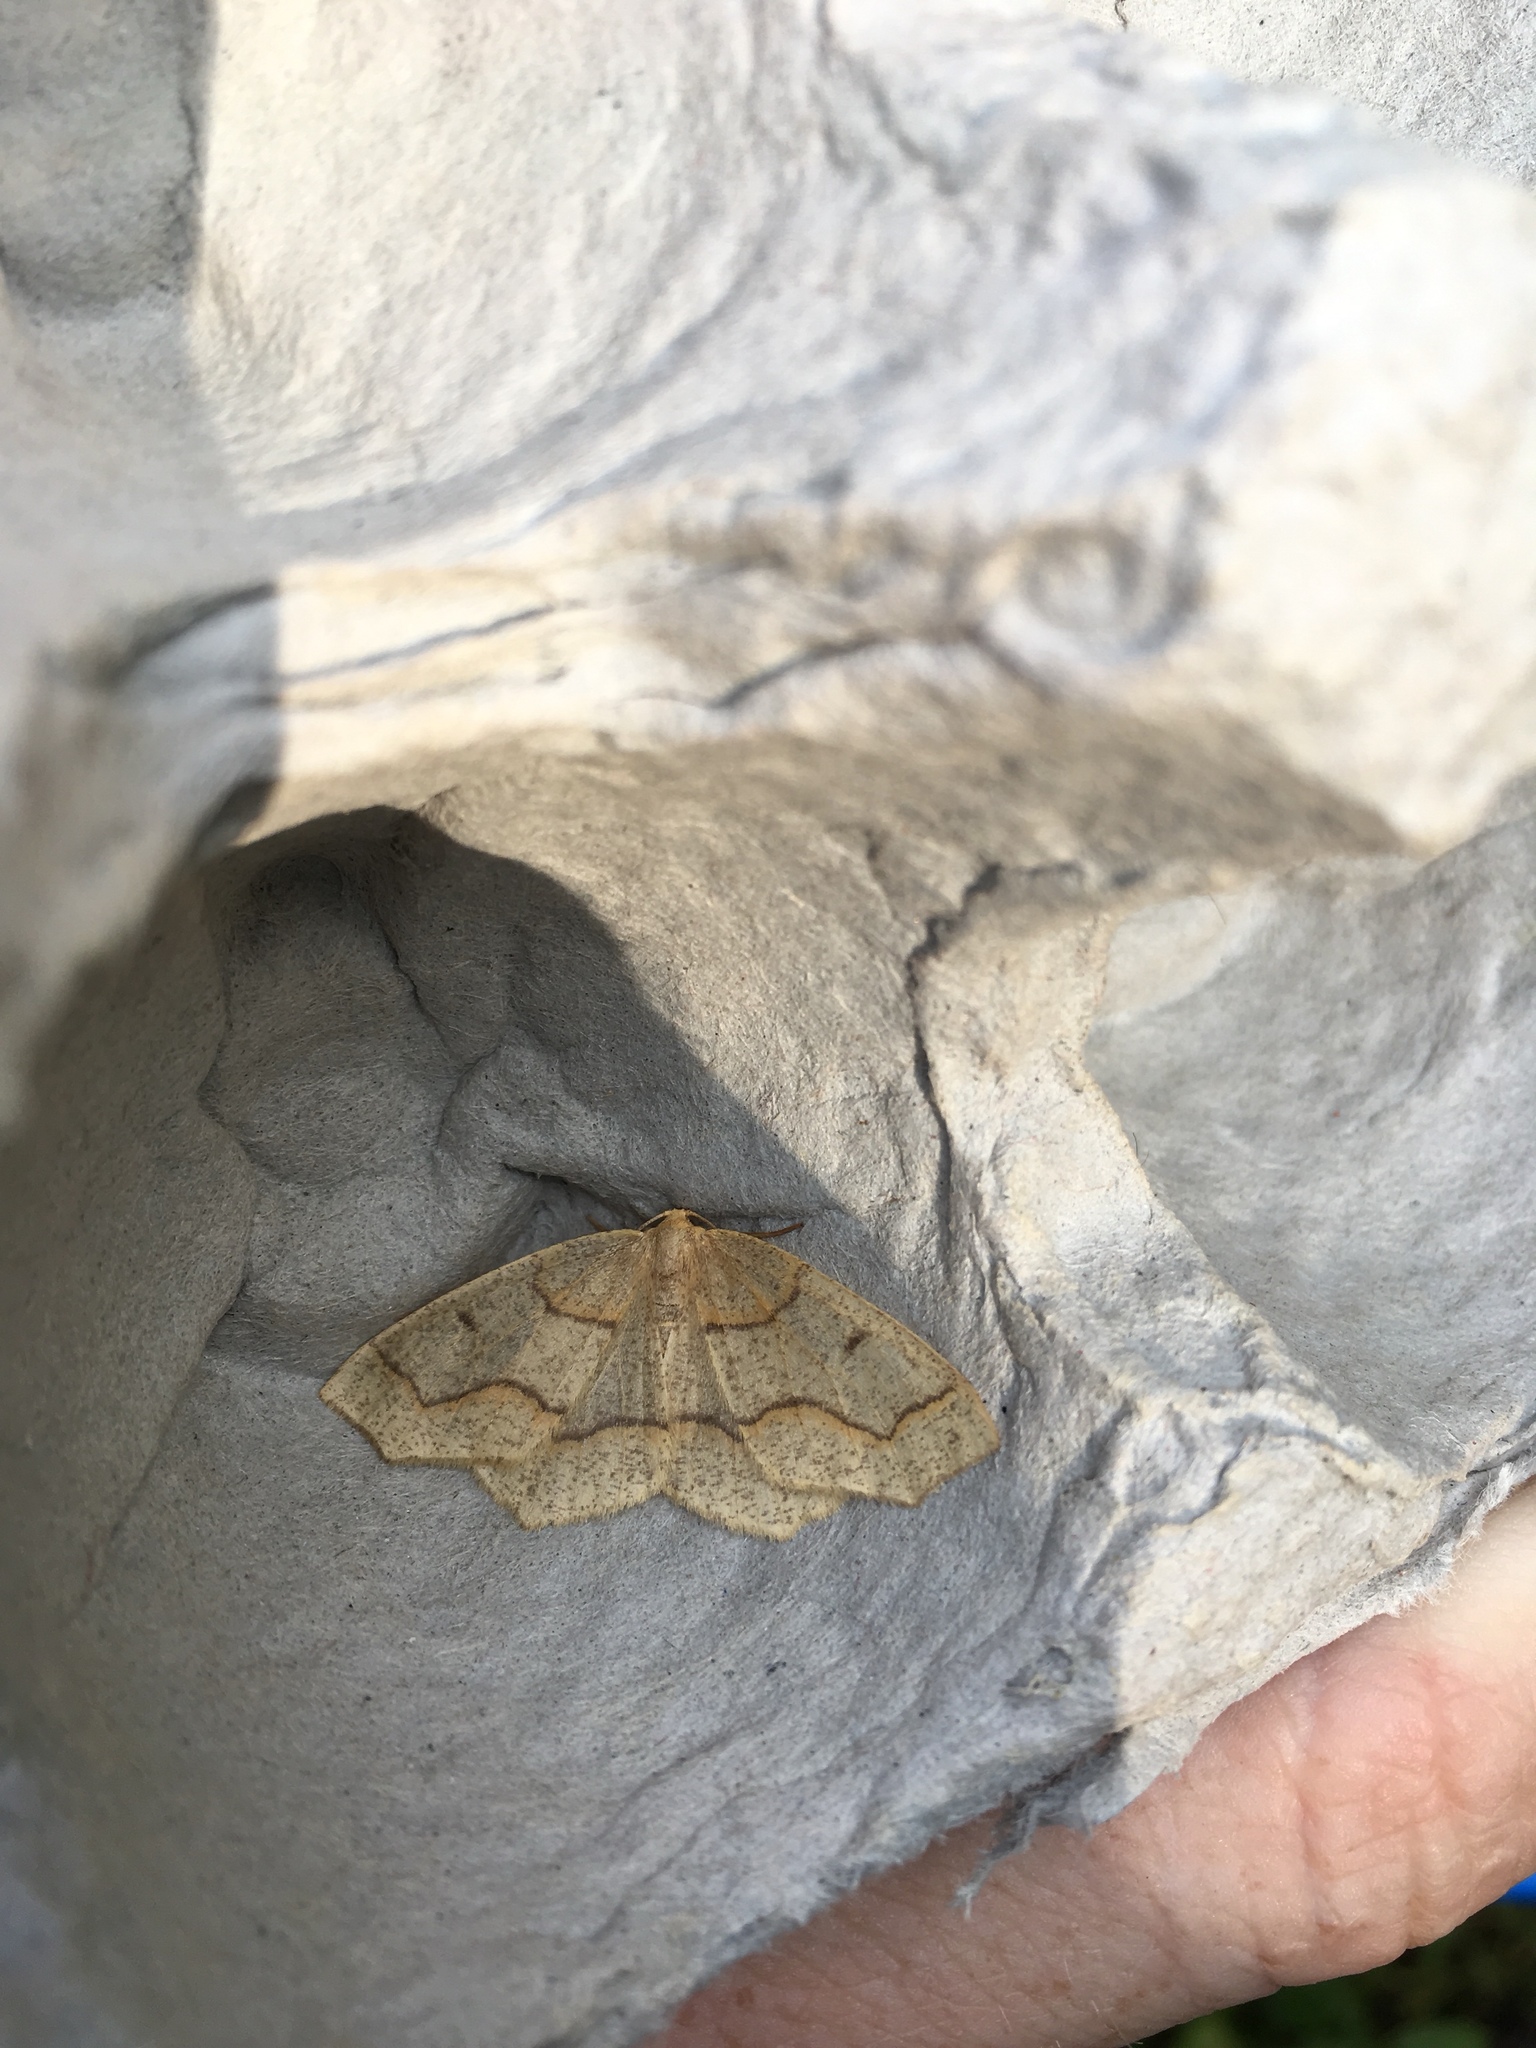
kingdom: Animalia
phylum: Arthropoda
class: Insecta
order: Lepidoptera
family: Geometridae
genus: Lambdina
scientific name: Lambdina fiscellaria
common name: Hemlock looper
